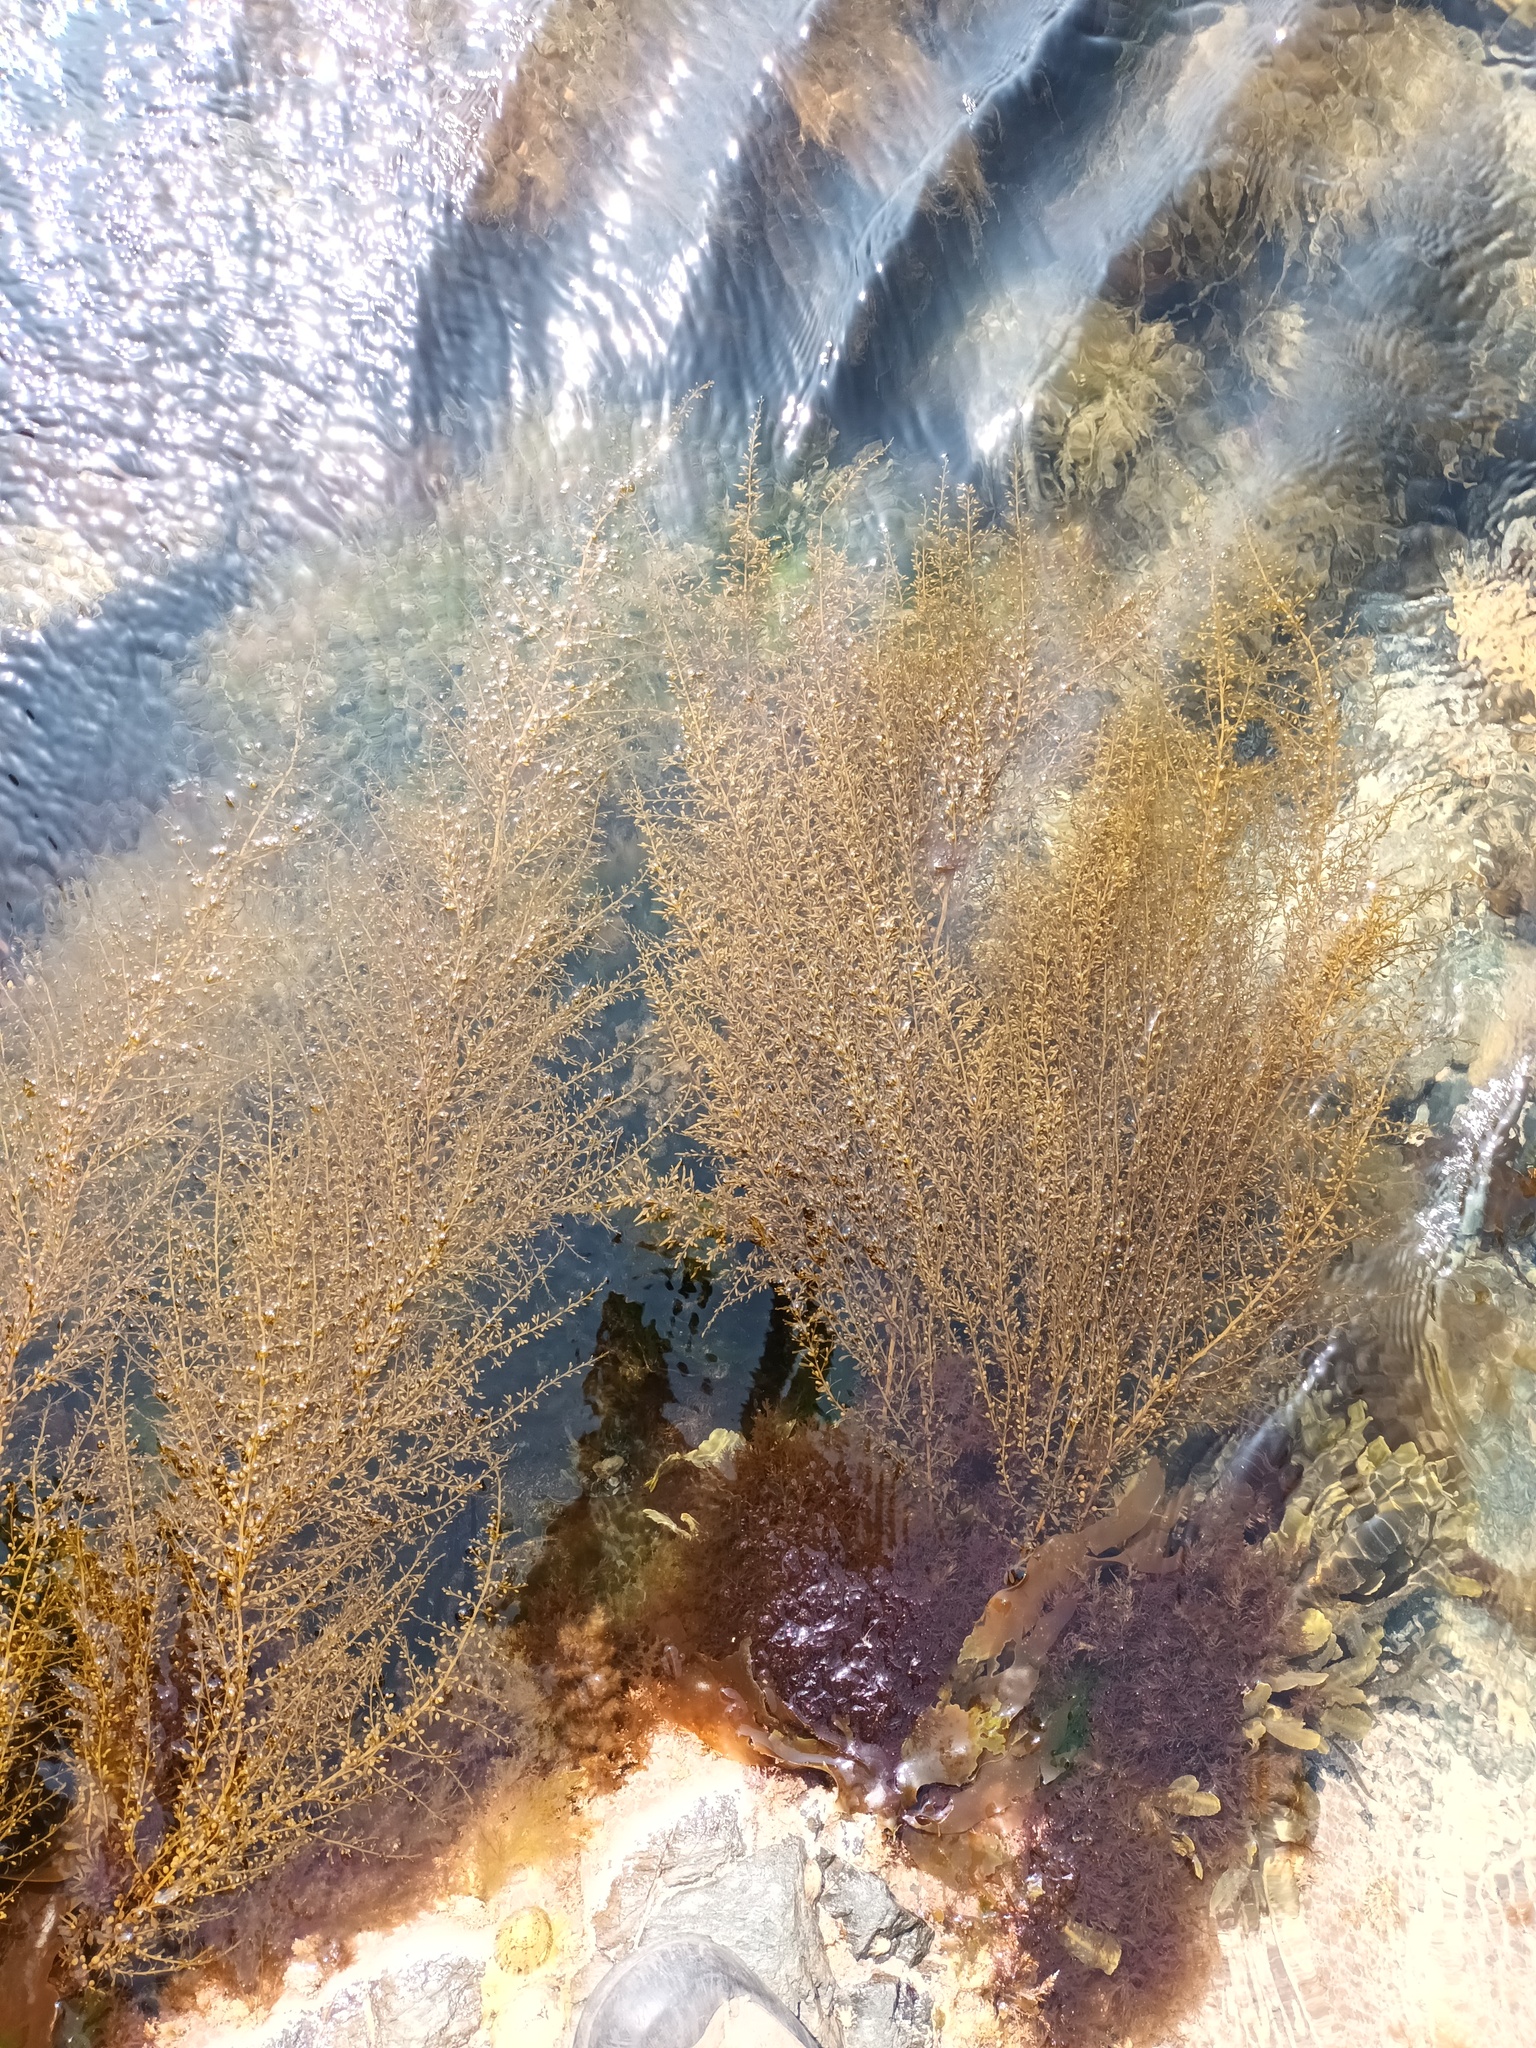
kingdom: Chromista
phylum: Ochrophyta
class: Phaeophyceae
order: Fucales
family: Sargassaceae
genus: Sargassum
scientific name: Sargassum muticum
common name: Japweed
